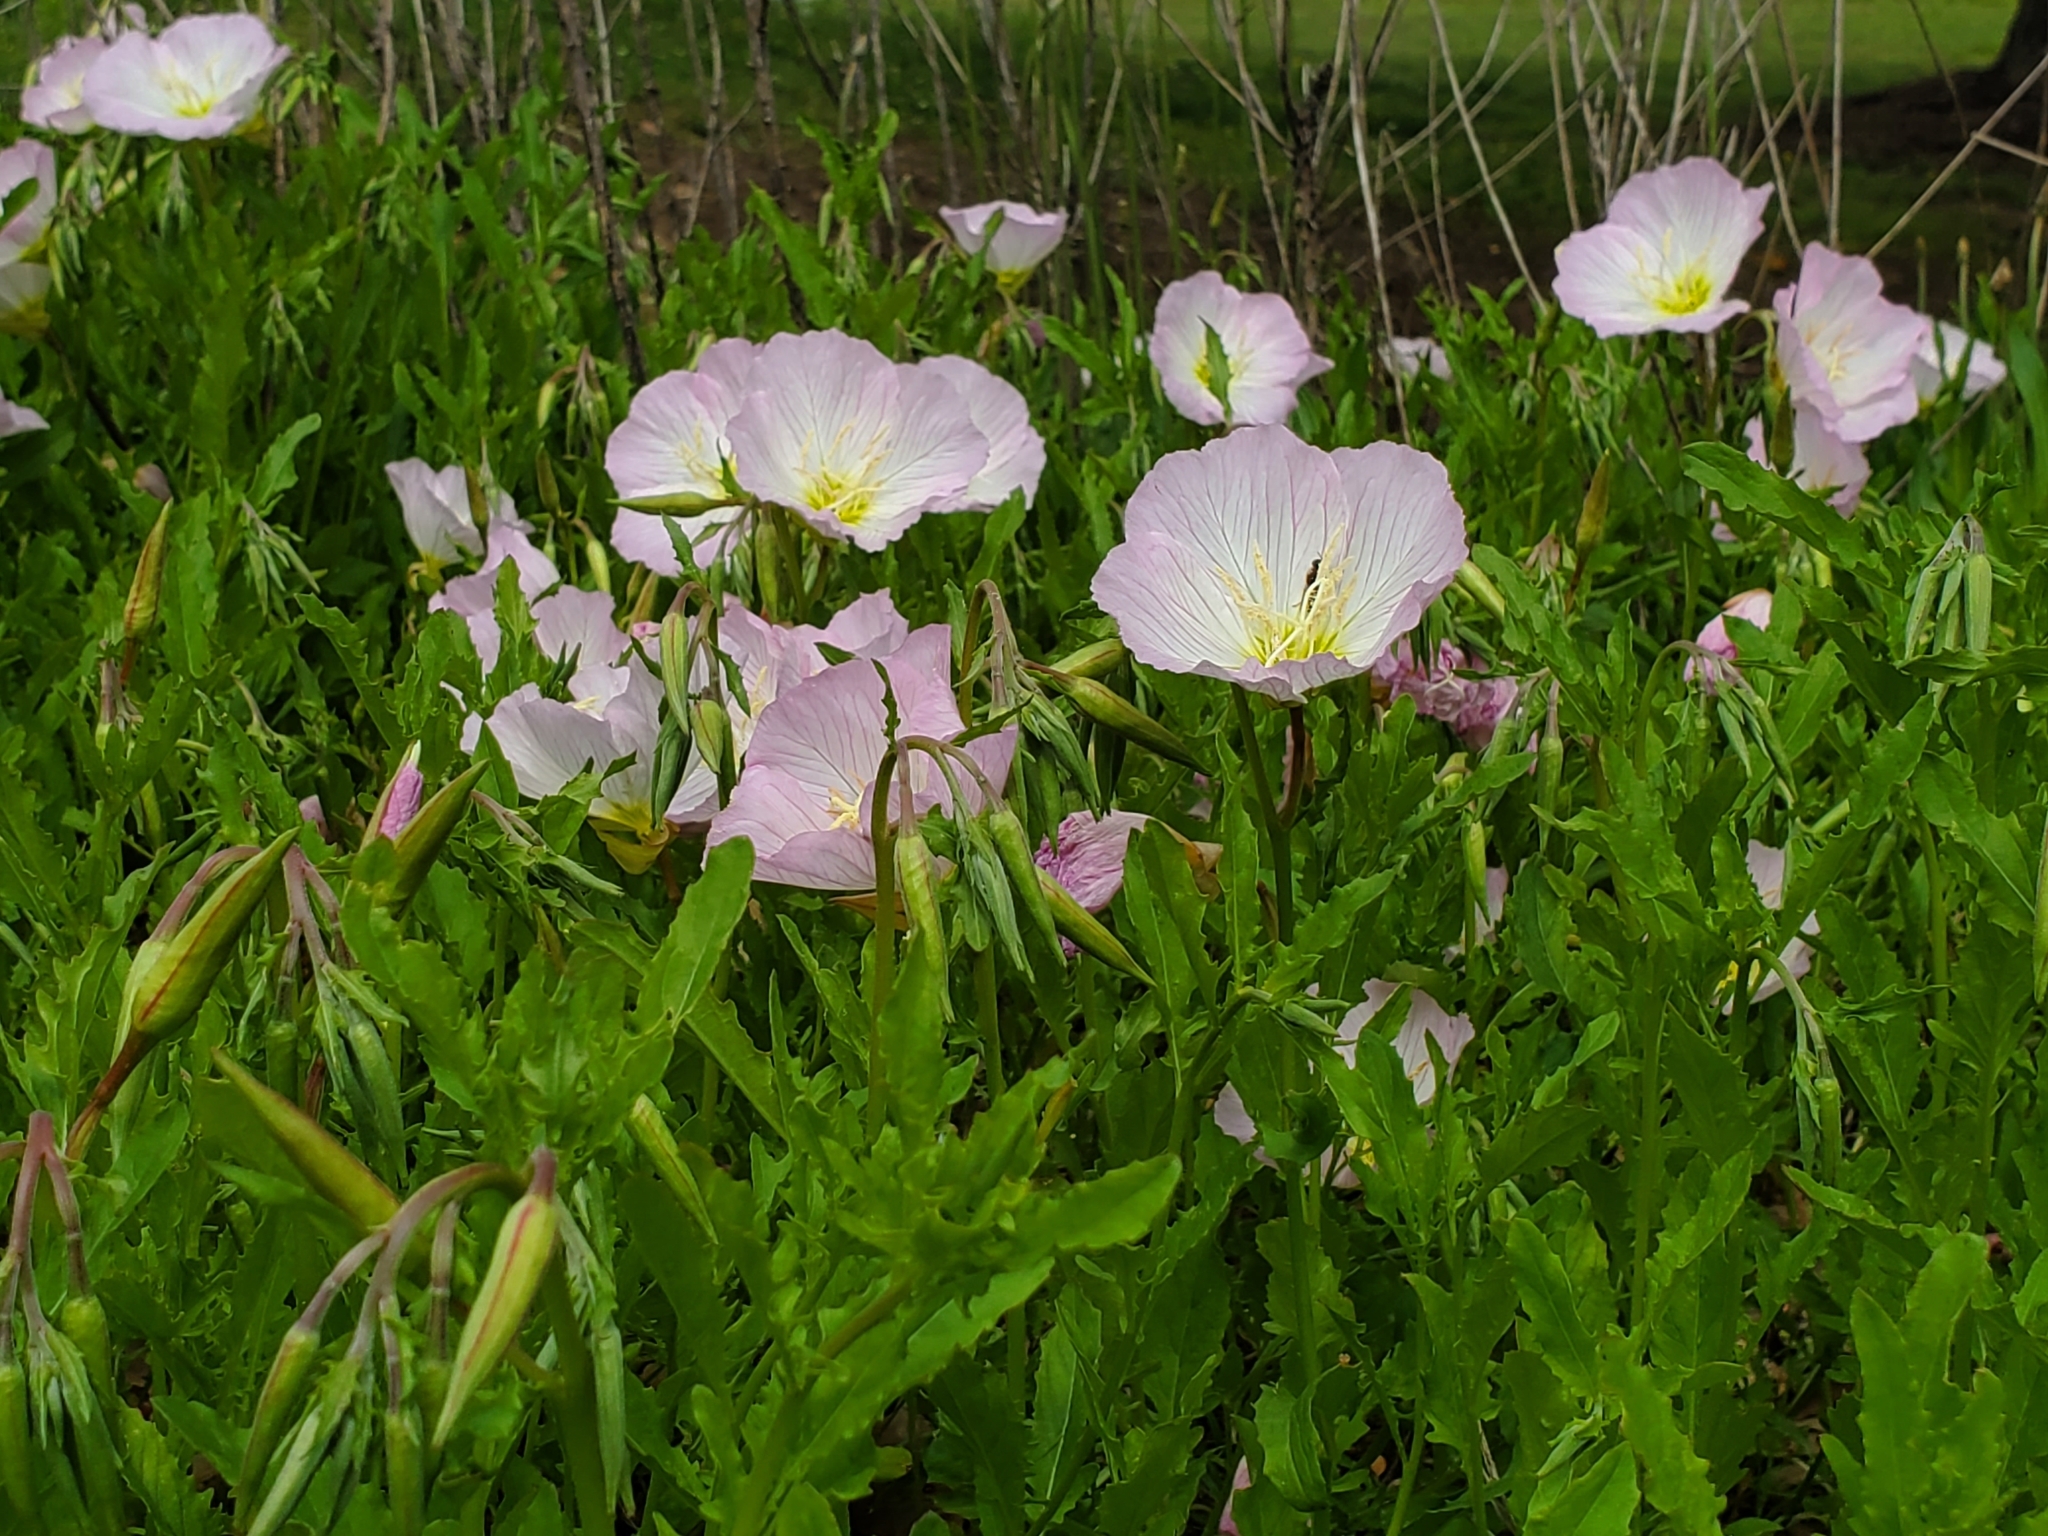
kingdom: Plantae
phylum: Tracheophyta
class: Magnoliopsida
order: Myrtales
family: Onagraceae
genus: Oenothera
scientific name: Oenothera speciosa
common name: White evening-primrose
